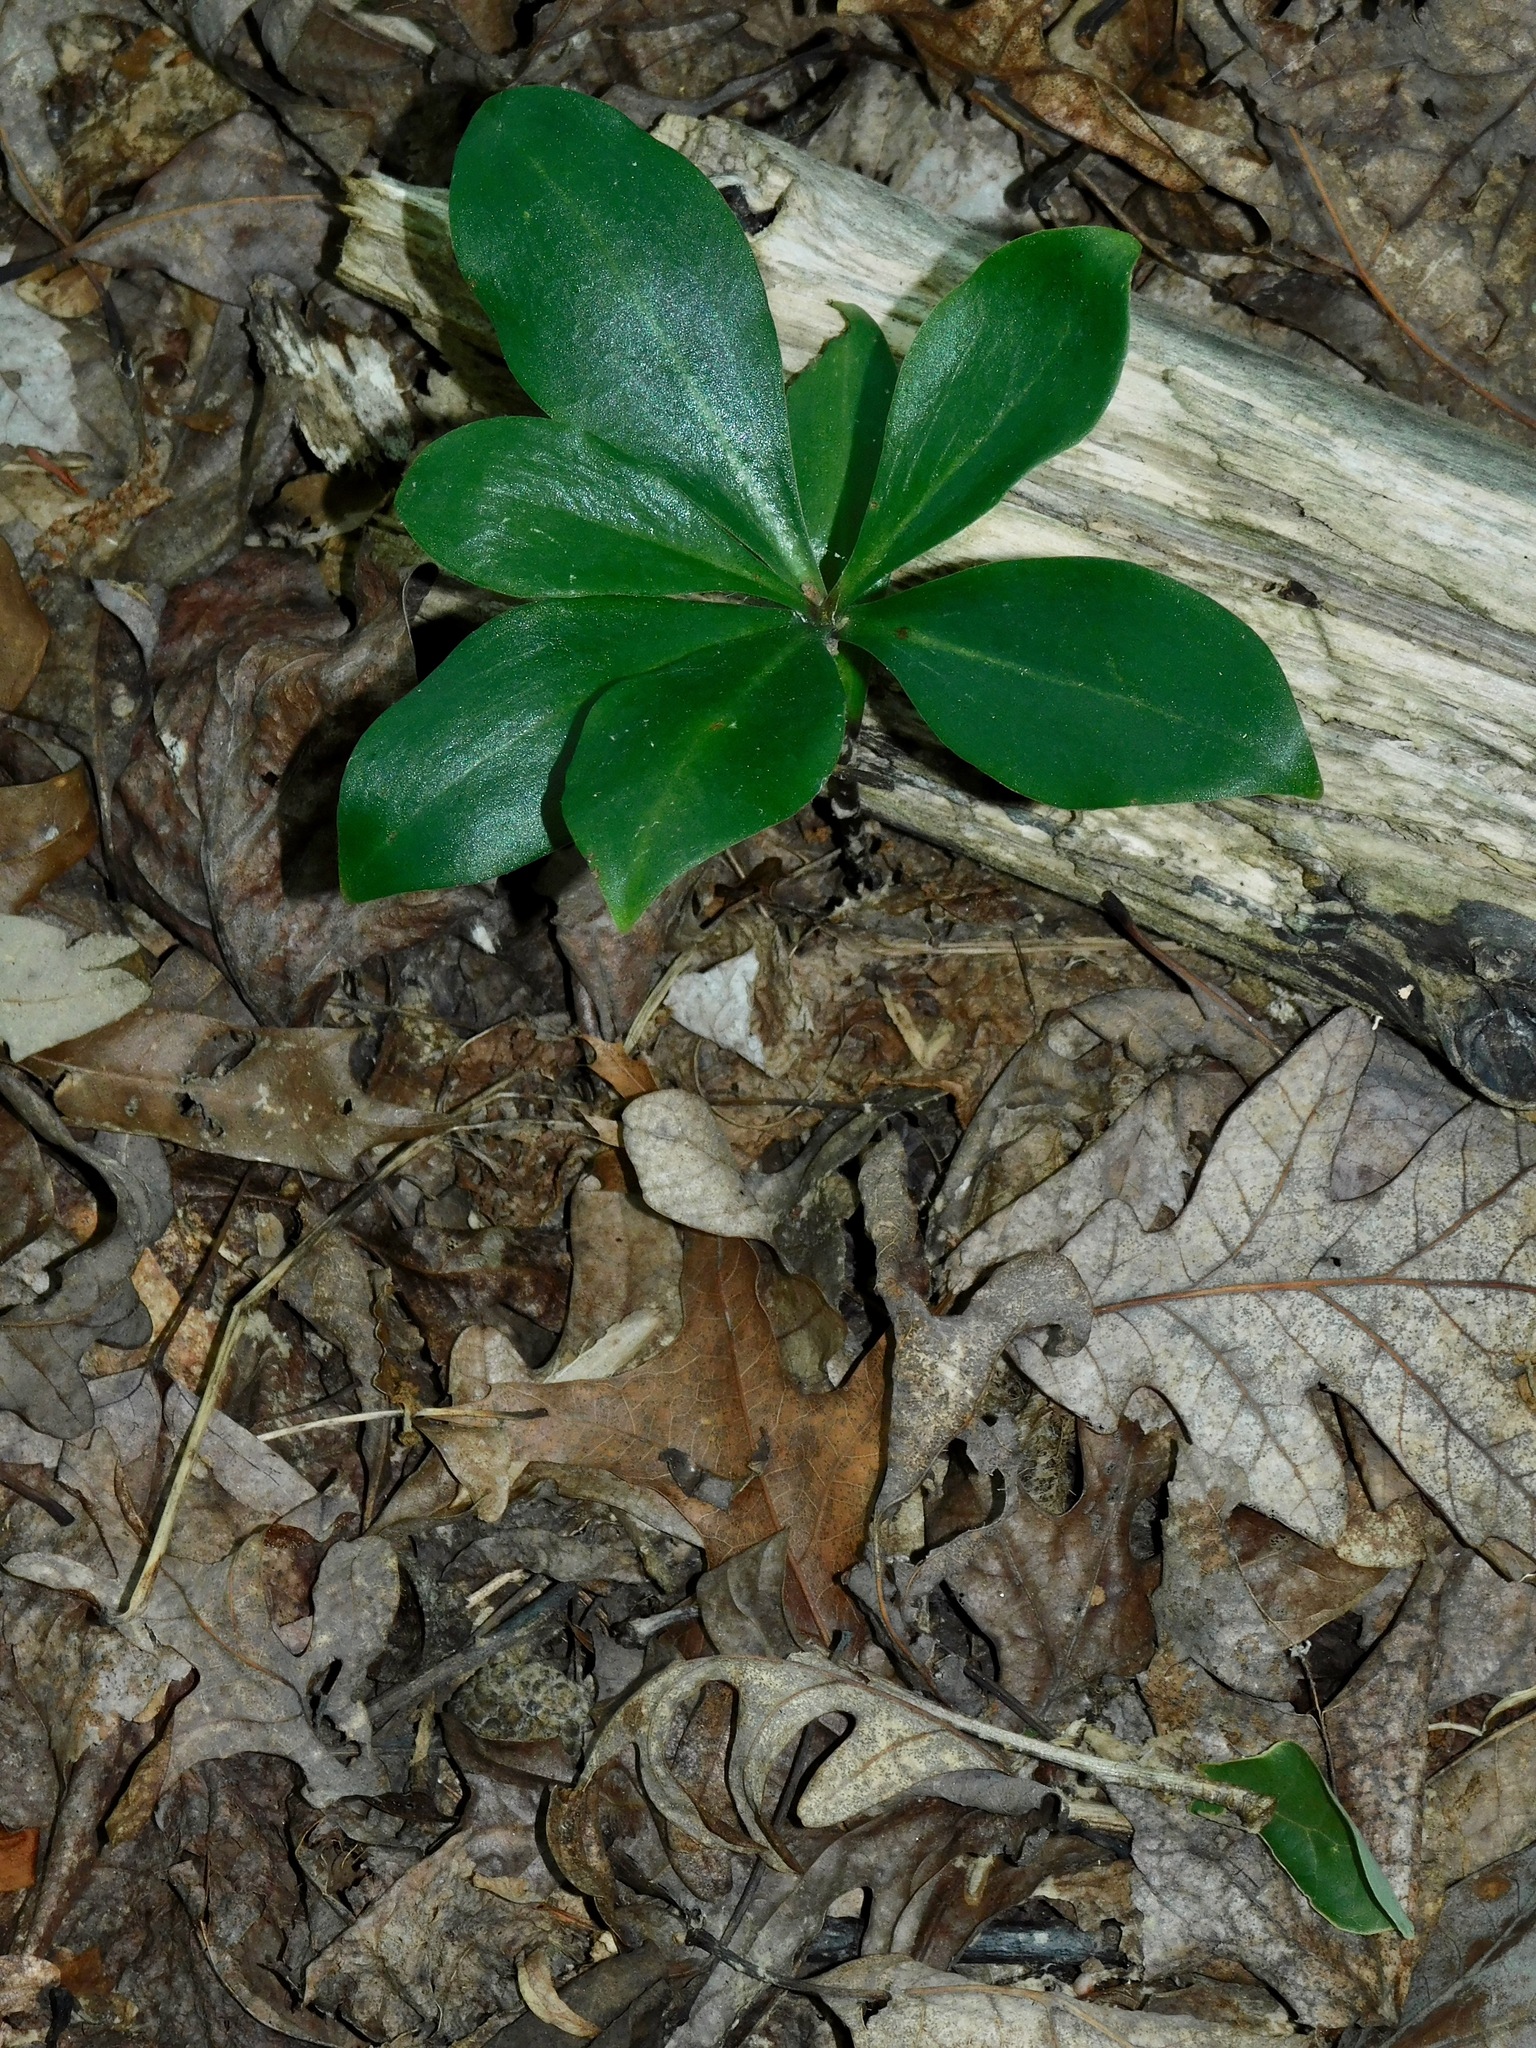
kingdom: Plantae
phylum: Tracheophyta
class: Liliopsida
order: Liliales
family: Liliaceae
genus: Lilium
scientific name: Lilium michauxii
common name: Carolina lily
